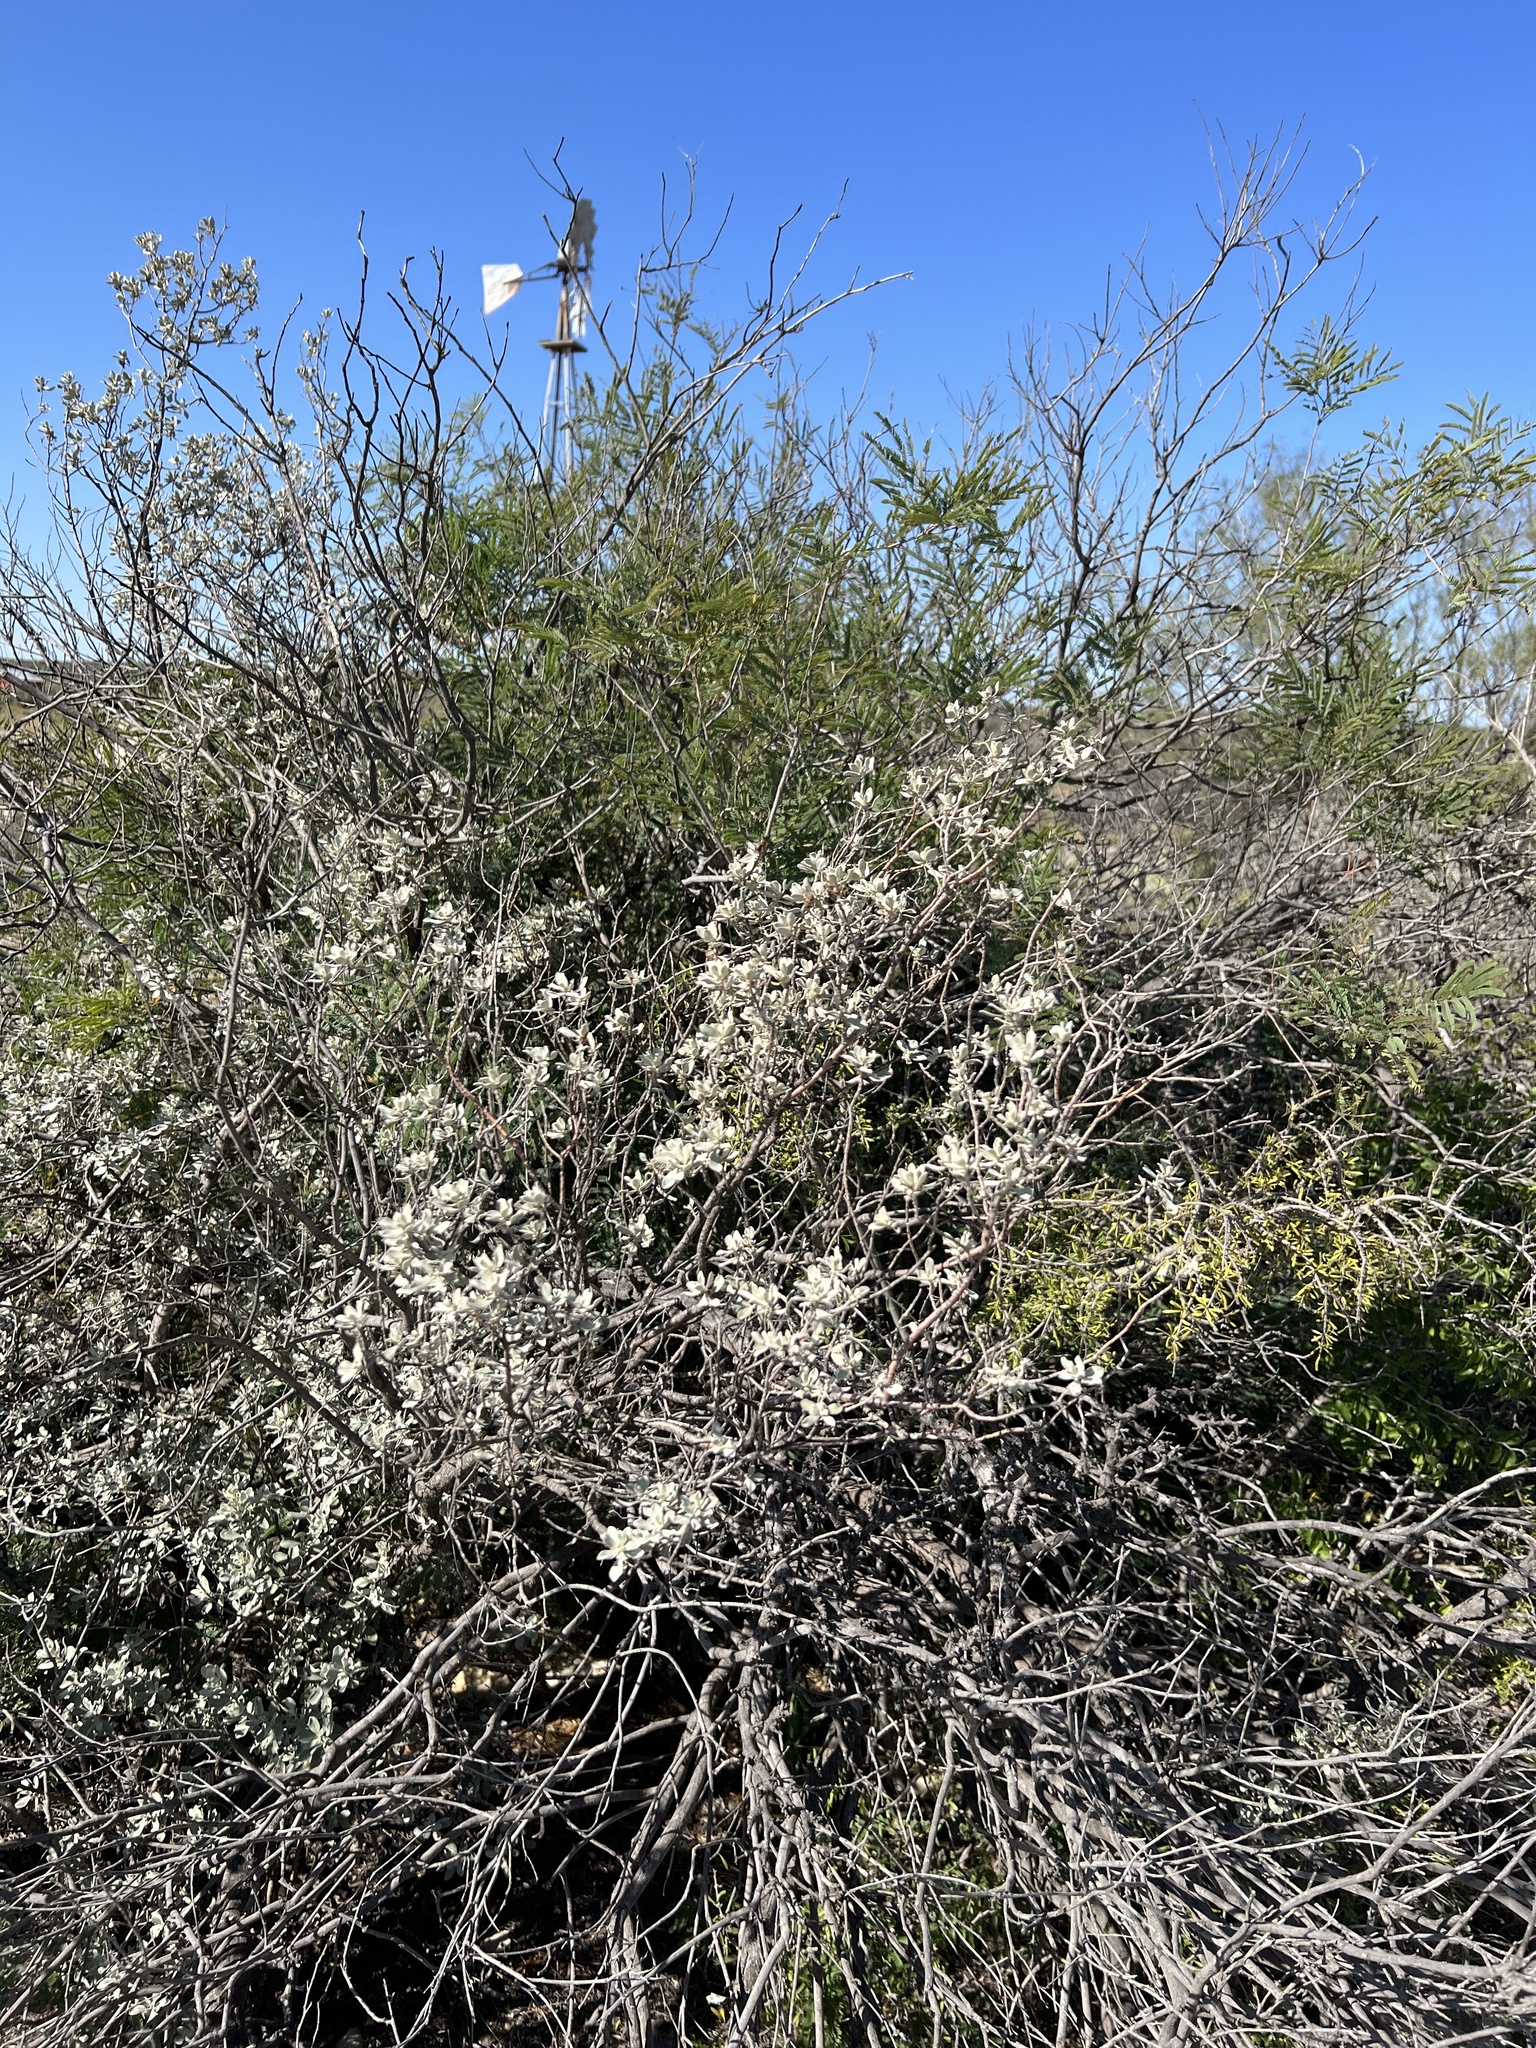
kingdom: Plantae
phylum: Tracheophyta
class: Magnoliopsida
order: Lamiales
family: Scrophulariaceae
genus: Leucophyllum
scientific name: Leucophyllum frutescens
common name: Texas silverleaf
